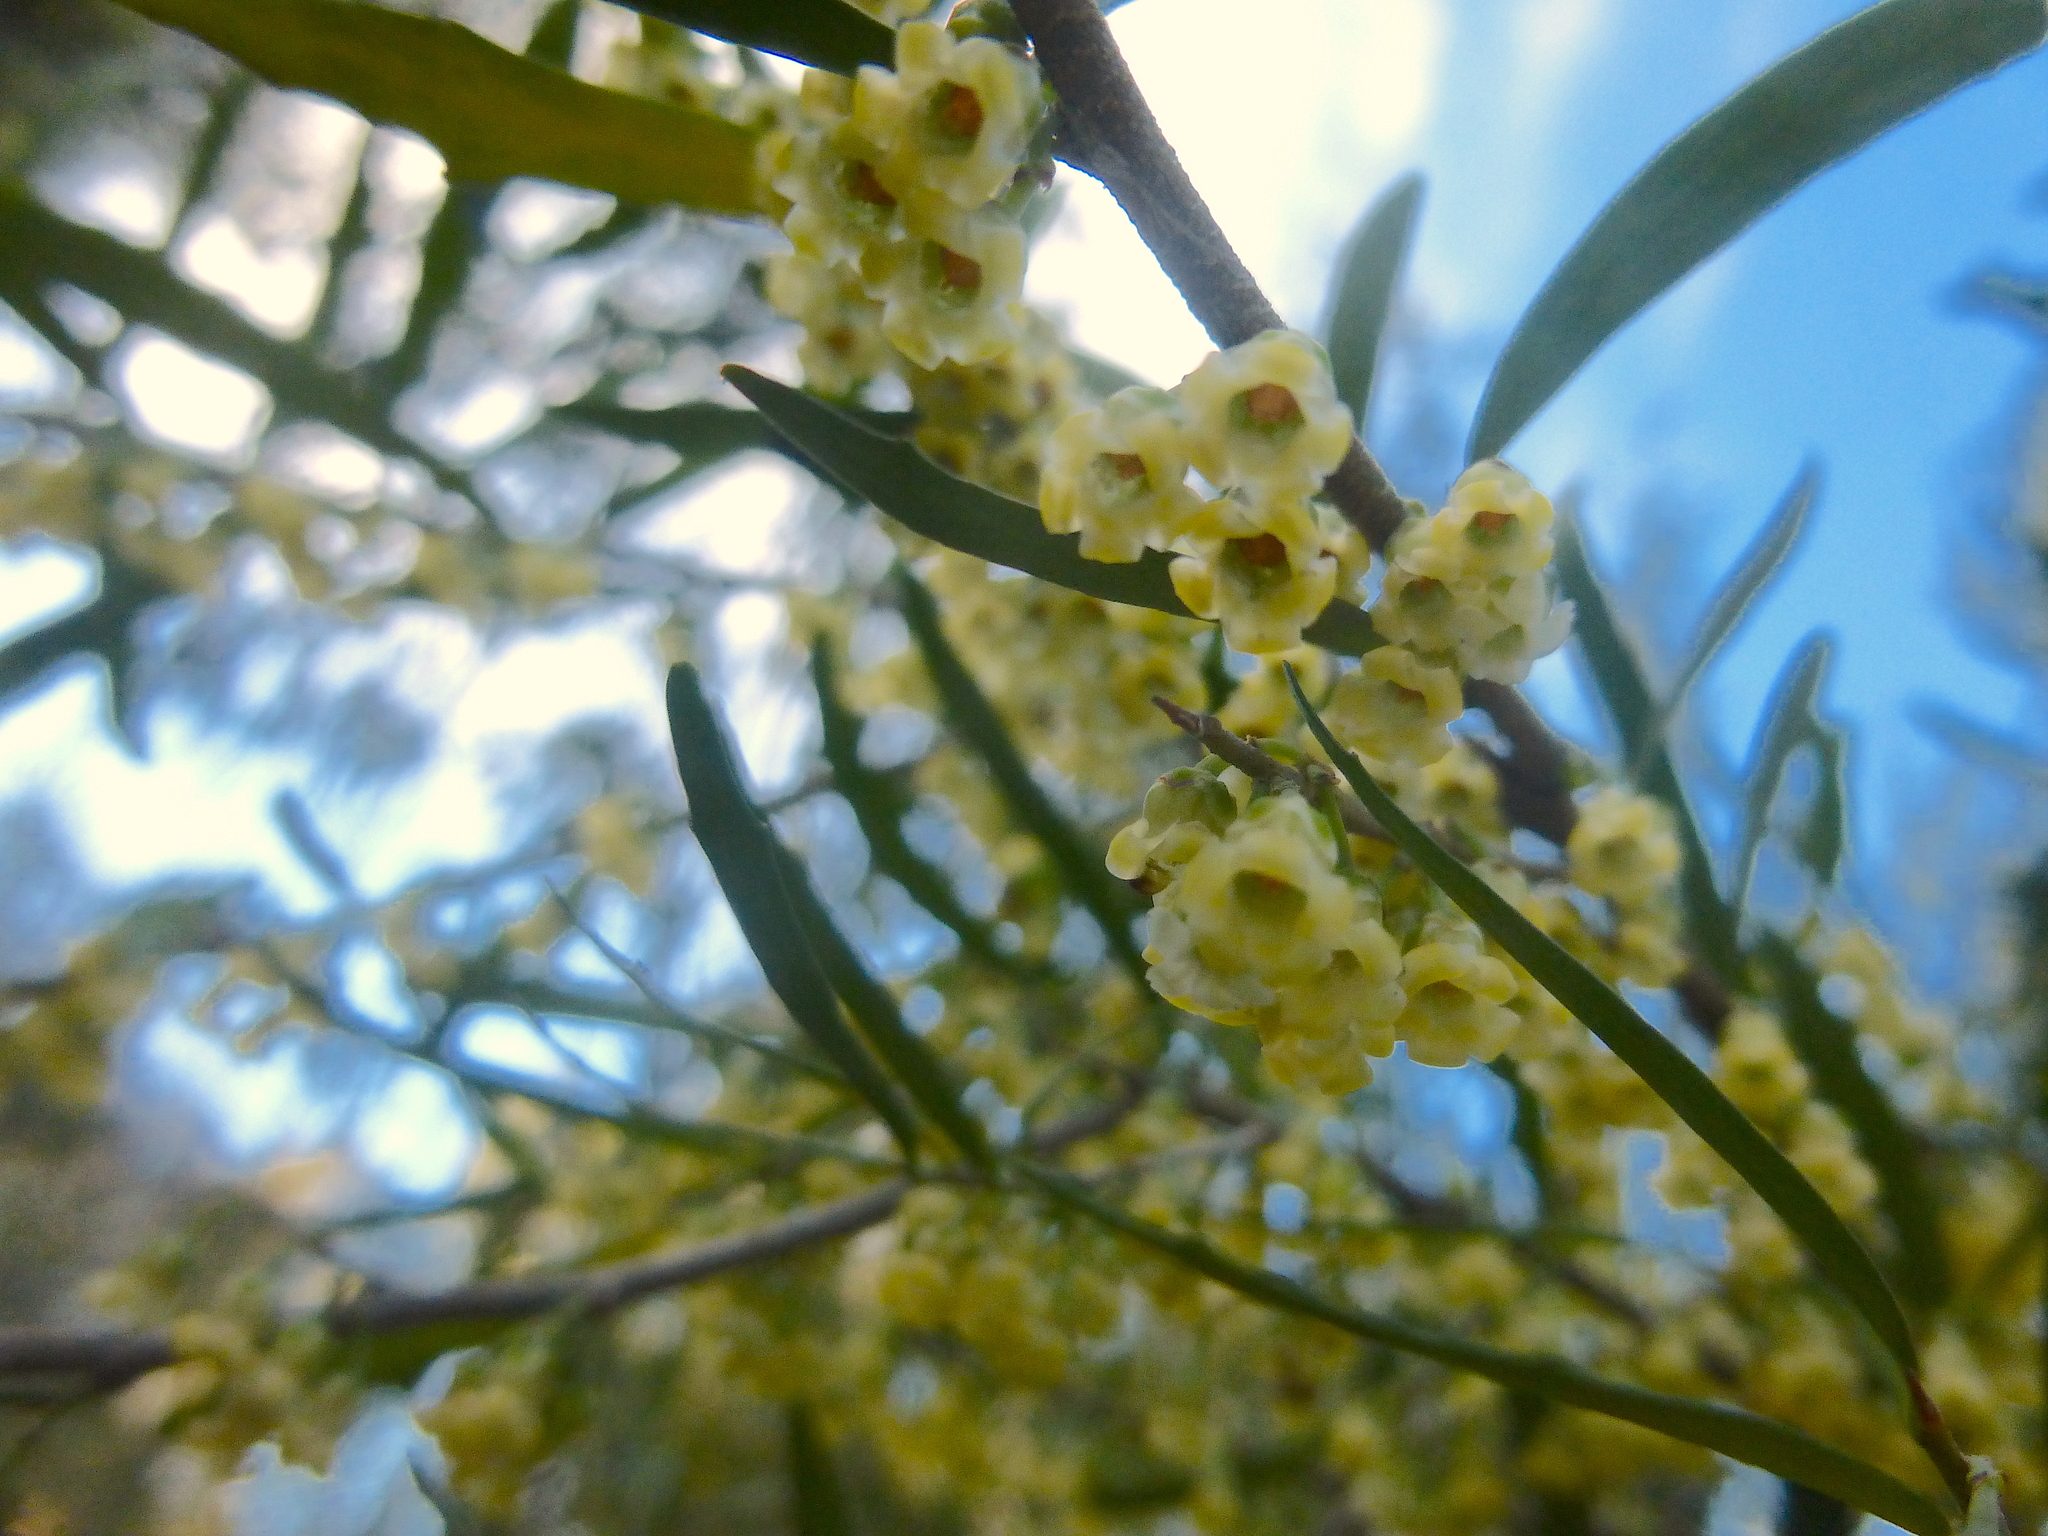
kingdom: Plantae
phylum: Tracheophyta
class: Magnoliopsida
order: Malpighiales
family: Violaceae
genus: Melicytus
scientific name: Melicytus dentatus
